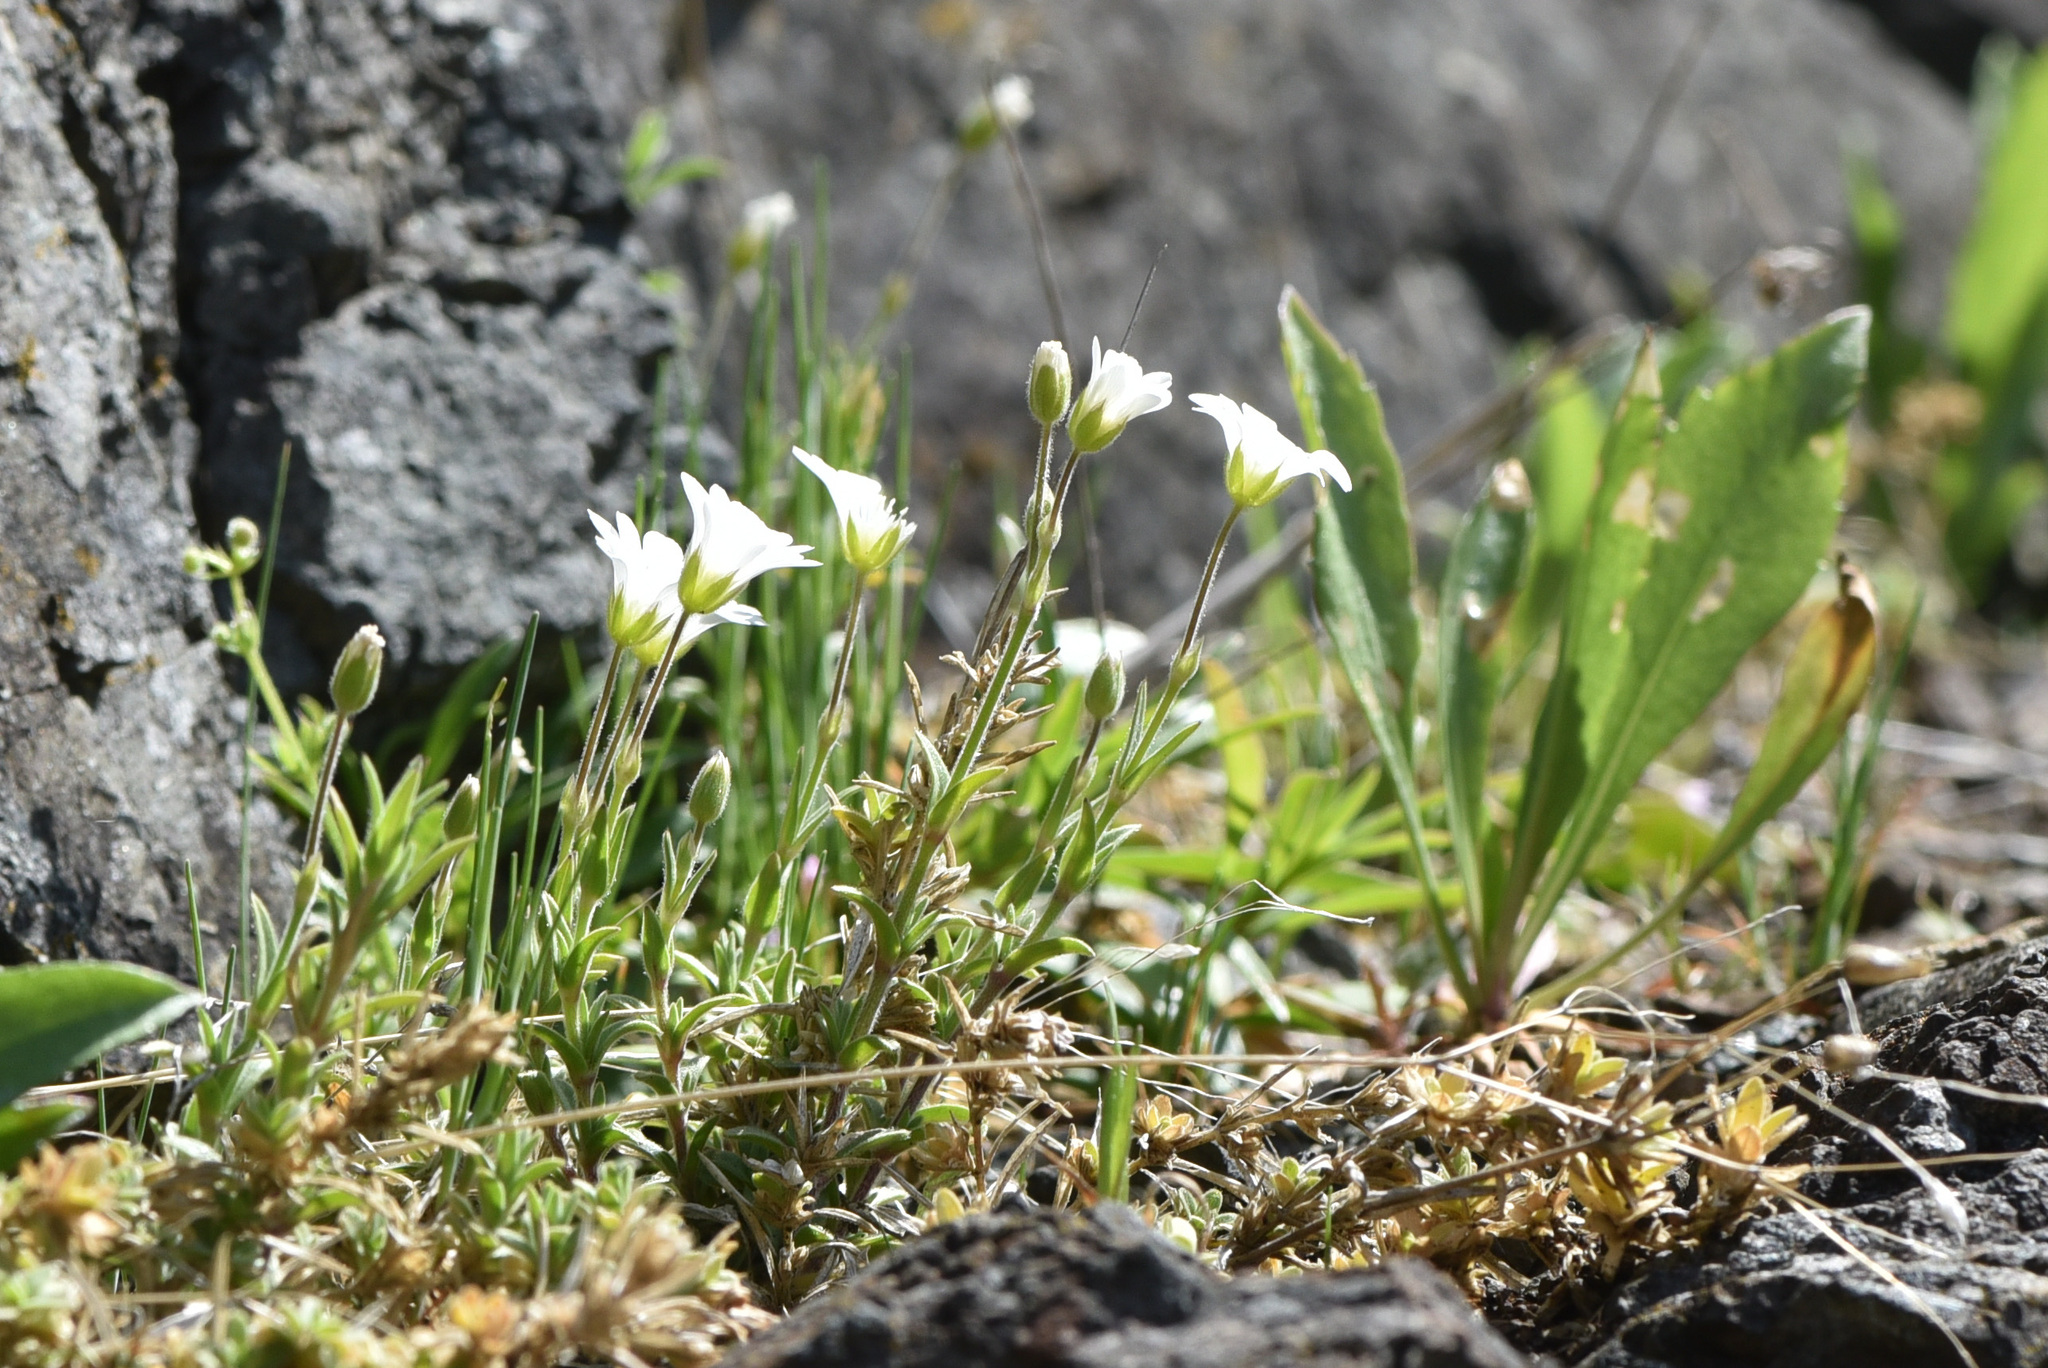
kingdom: Plantae
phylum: Tracheophyta
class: Magnoliopsida
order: Caryophyllales
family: Caryophyllaceae
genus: Cerastium
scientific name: Cerastium arvense
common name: Field mouse-ear
